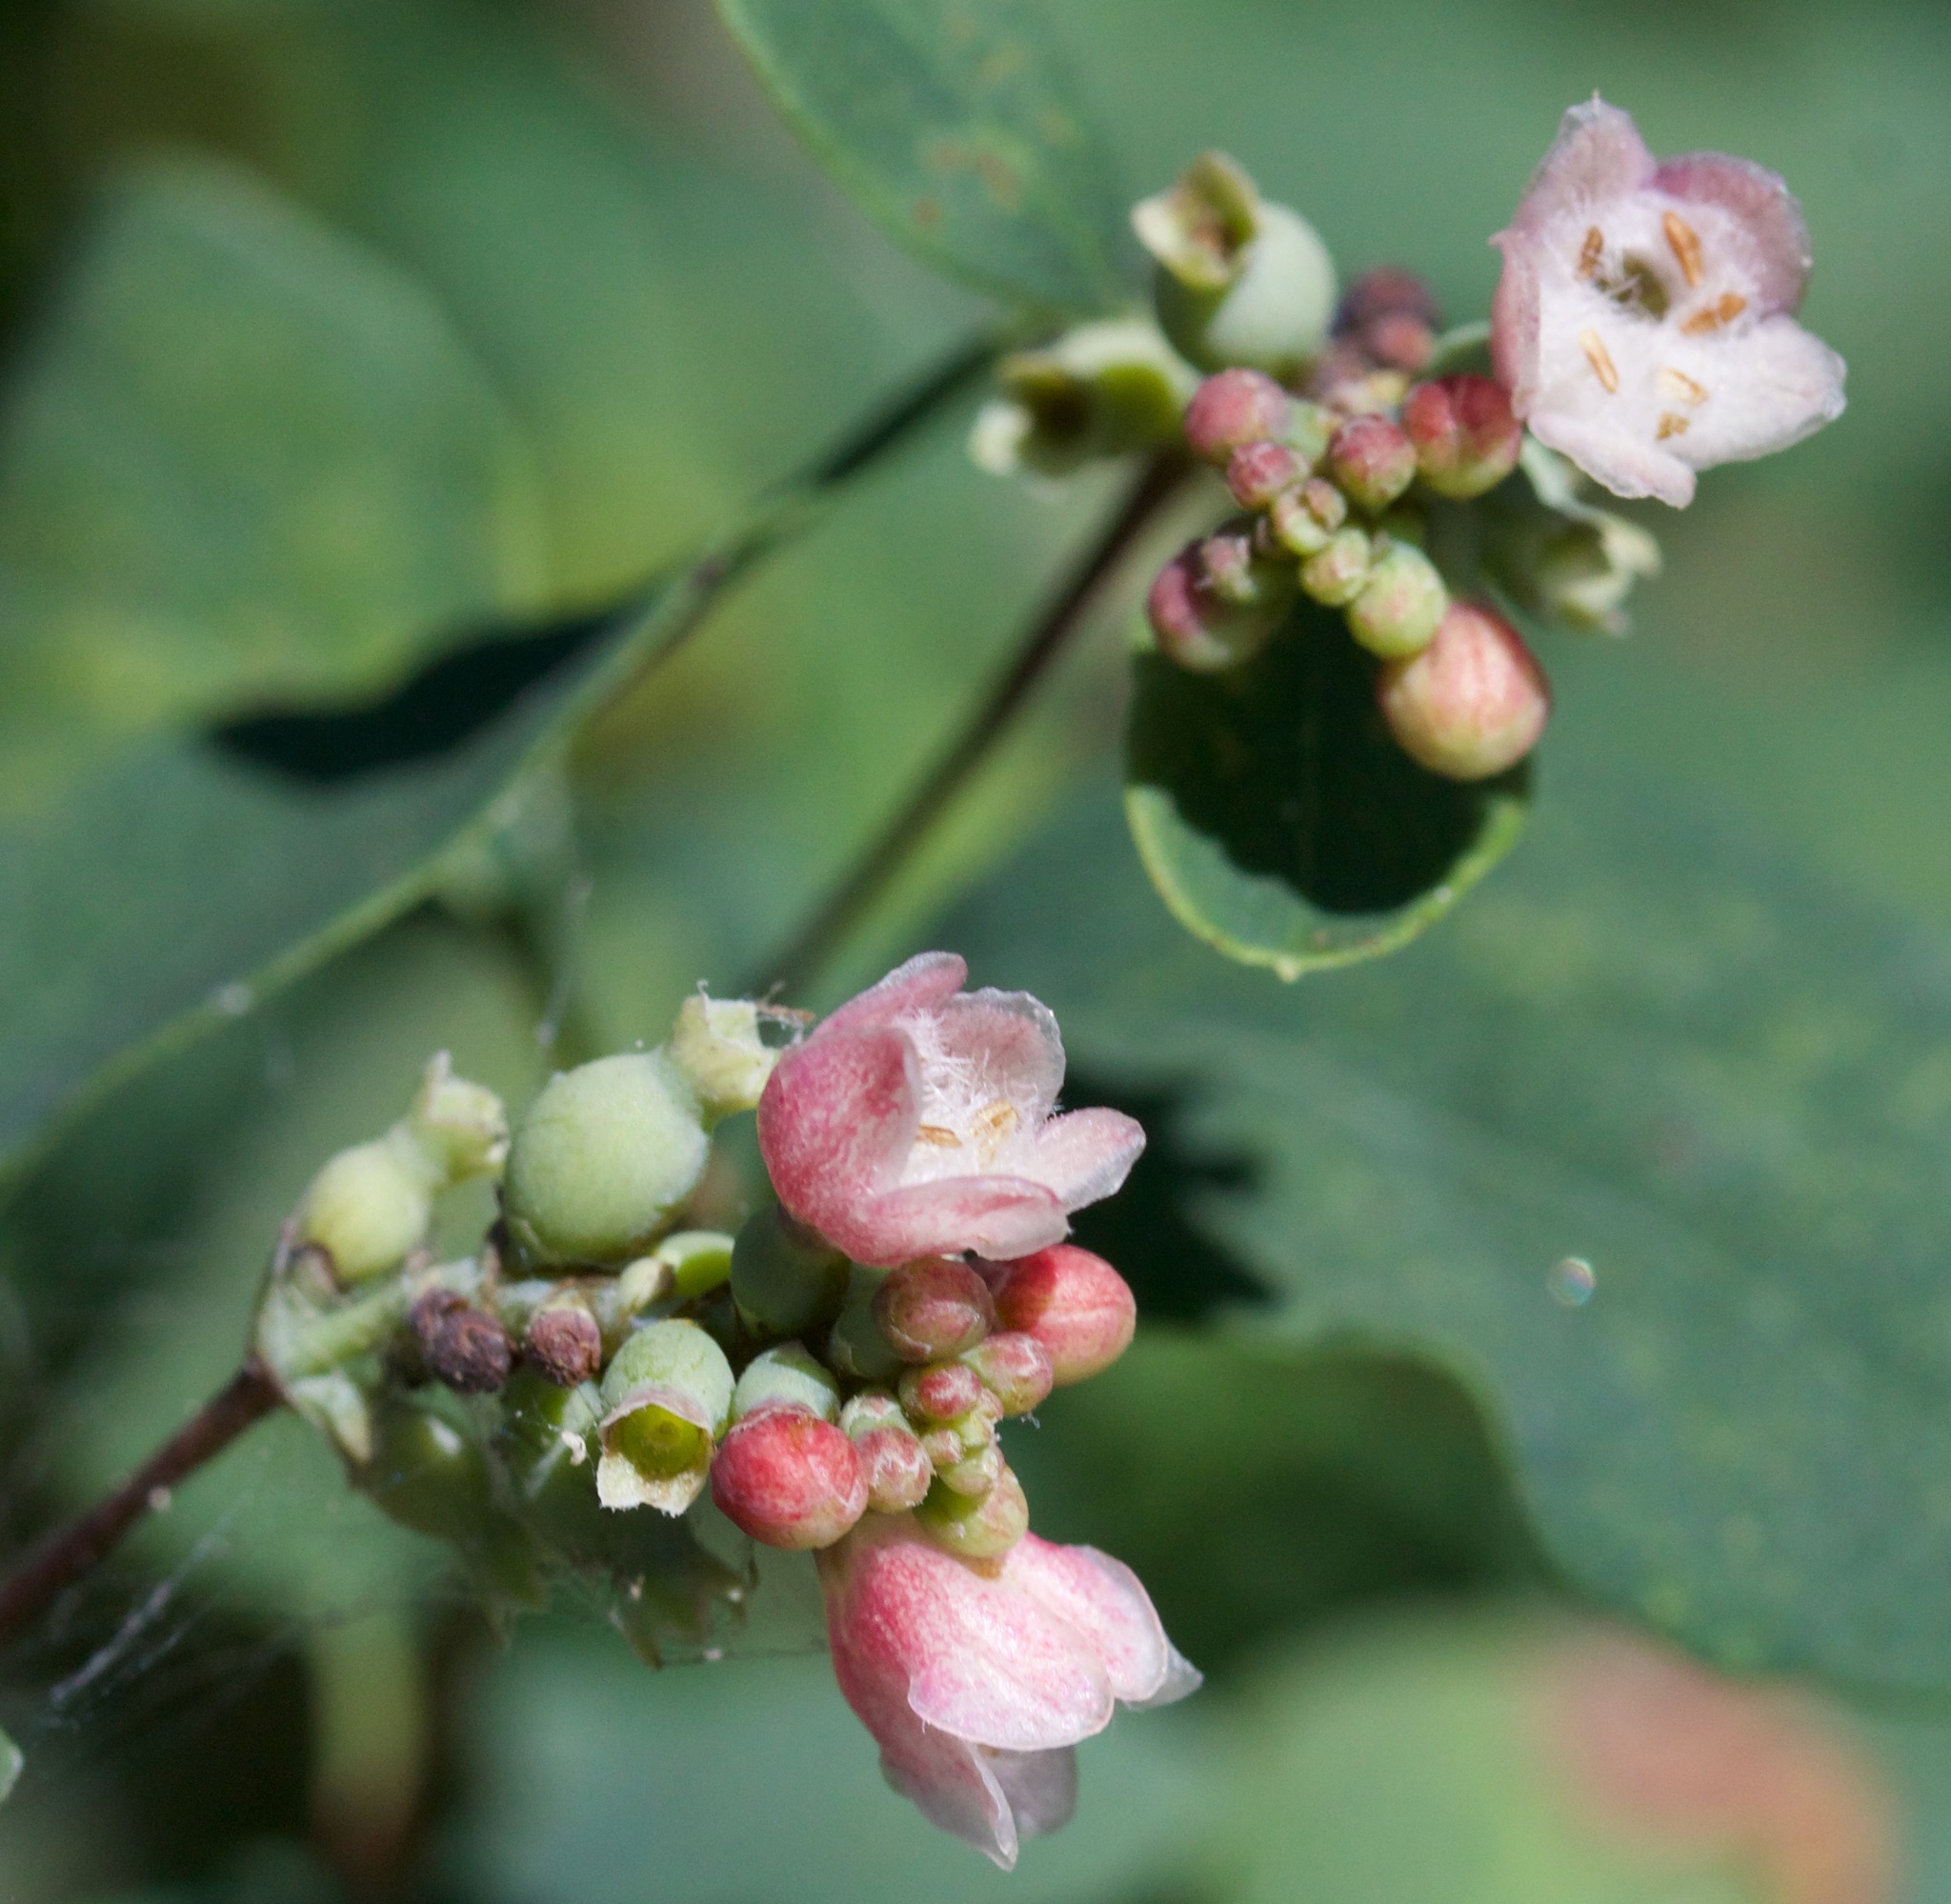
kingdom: Plantae
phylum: Tracheophyta
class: Magnoliopsida
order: Dipsacales
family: Caprifoliaceae
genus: Symphoricarpos
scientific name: Symphoricarpos albus
